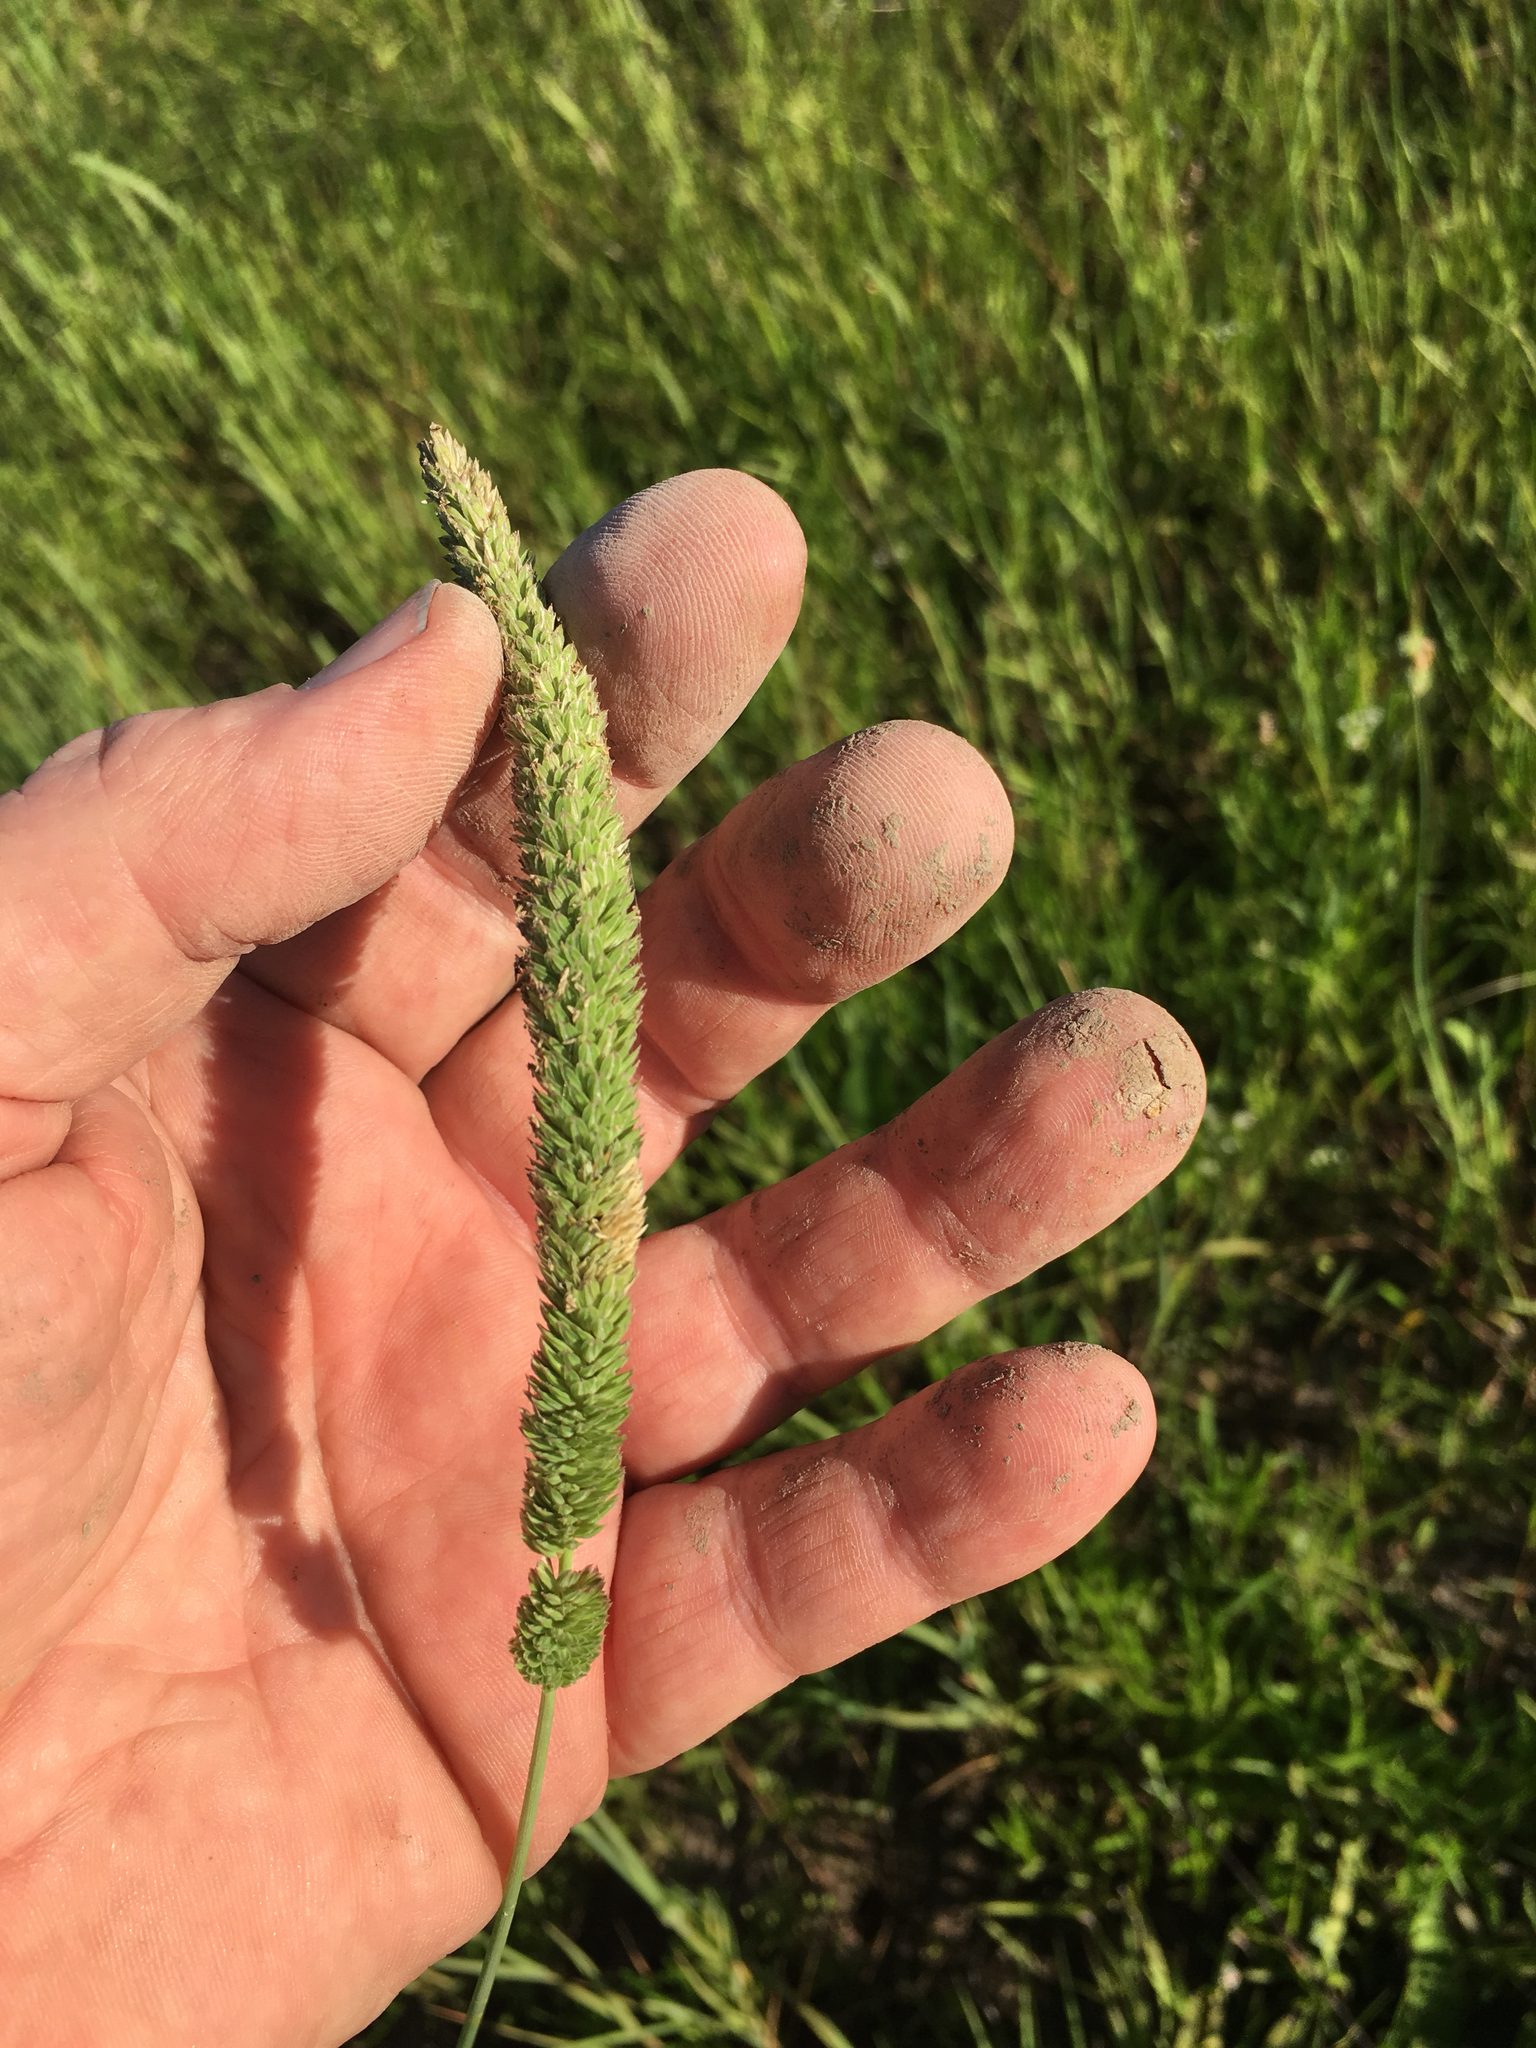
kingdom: Plantae
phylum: Tracheophyta
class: Liliopsida
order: Poales
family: Poaceae
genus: Phalaris
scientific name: Phalaris angusta
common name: Narrow canary grass
